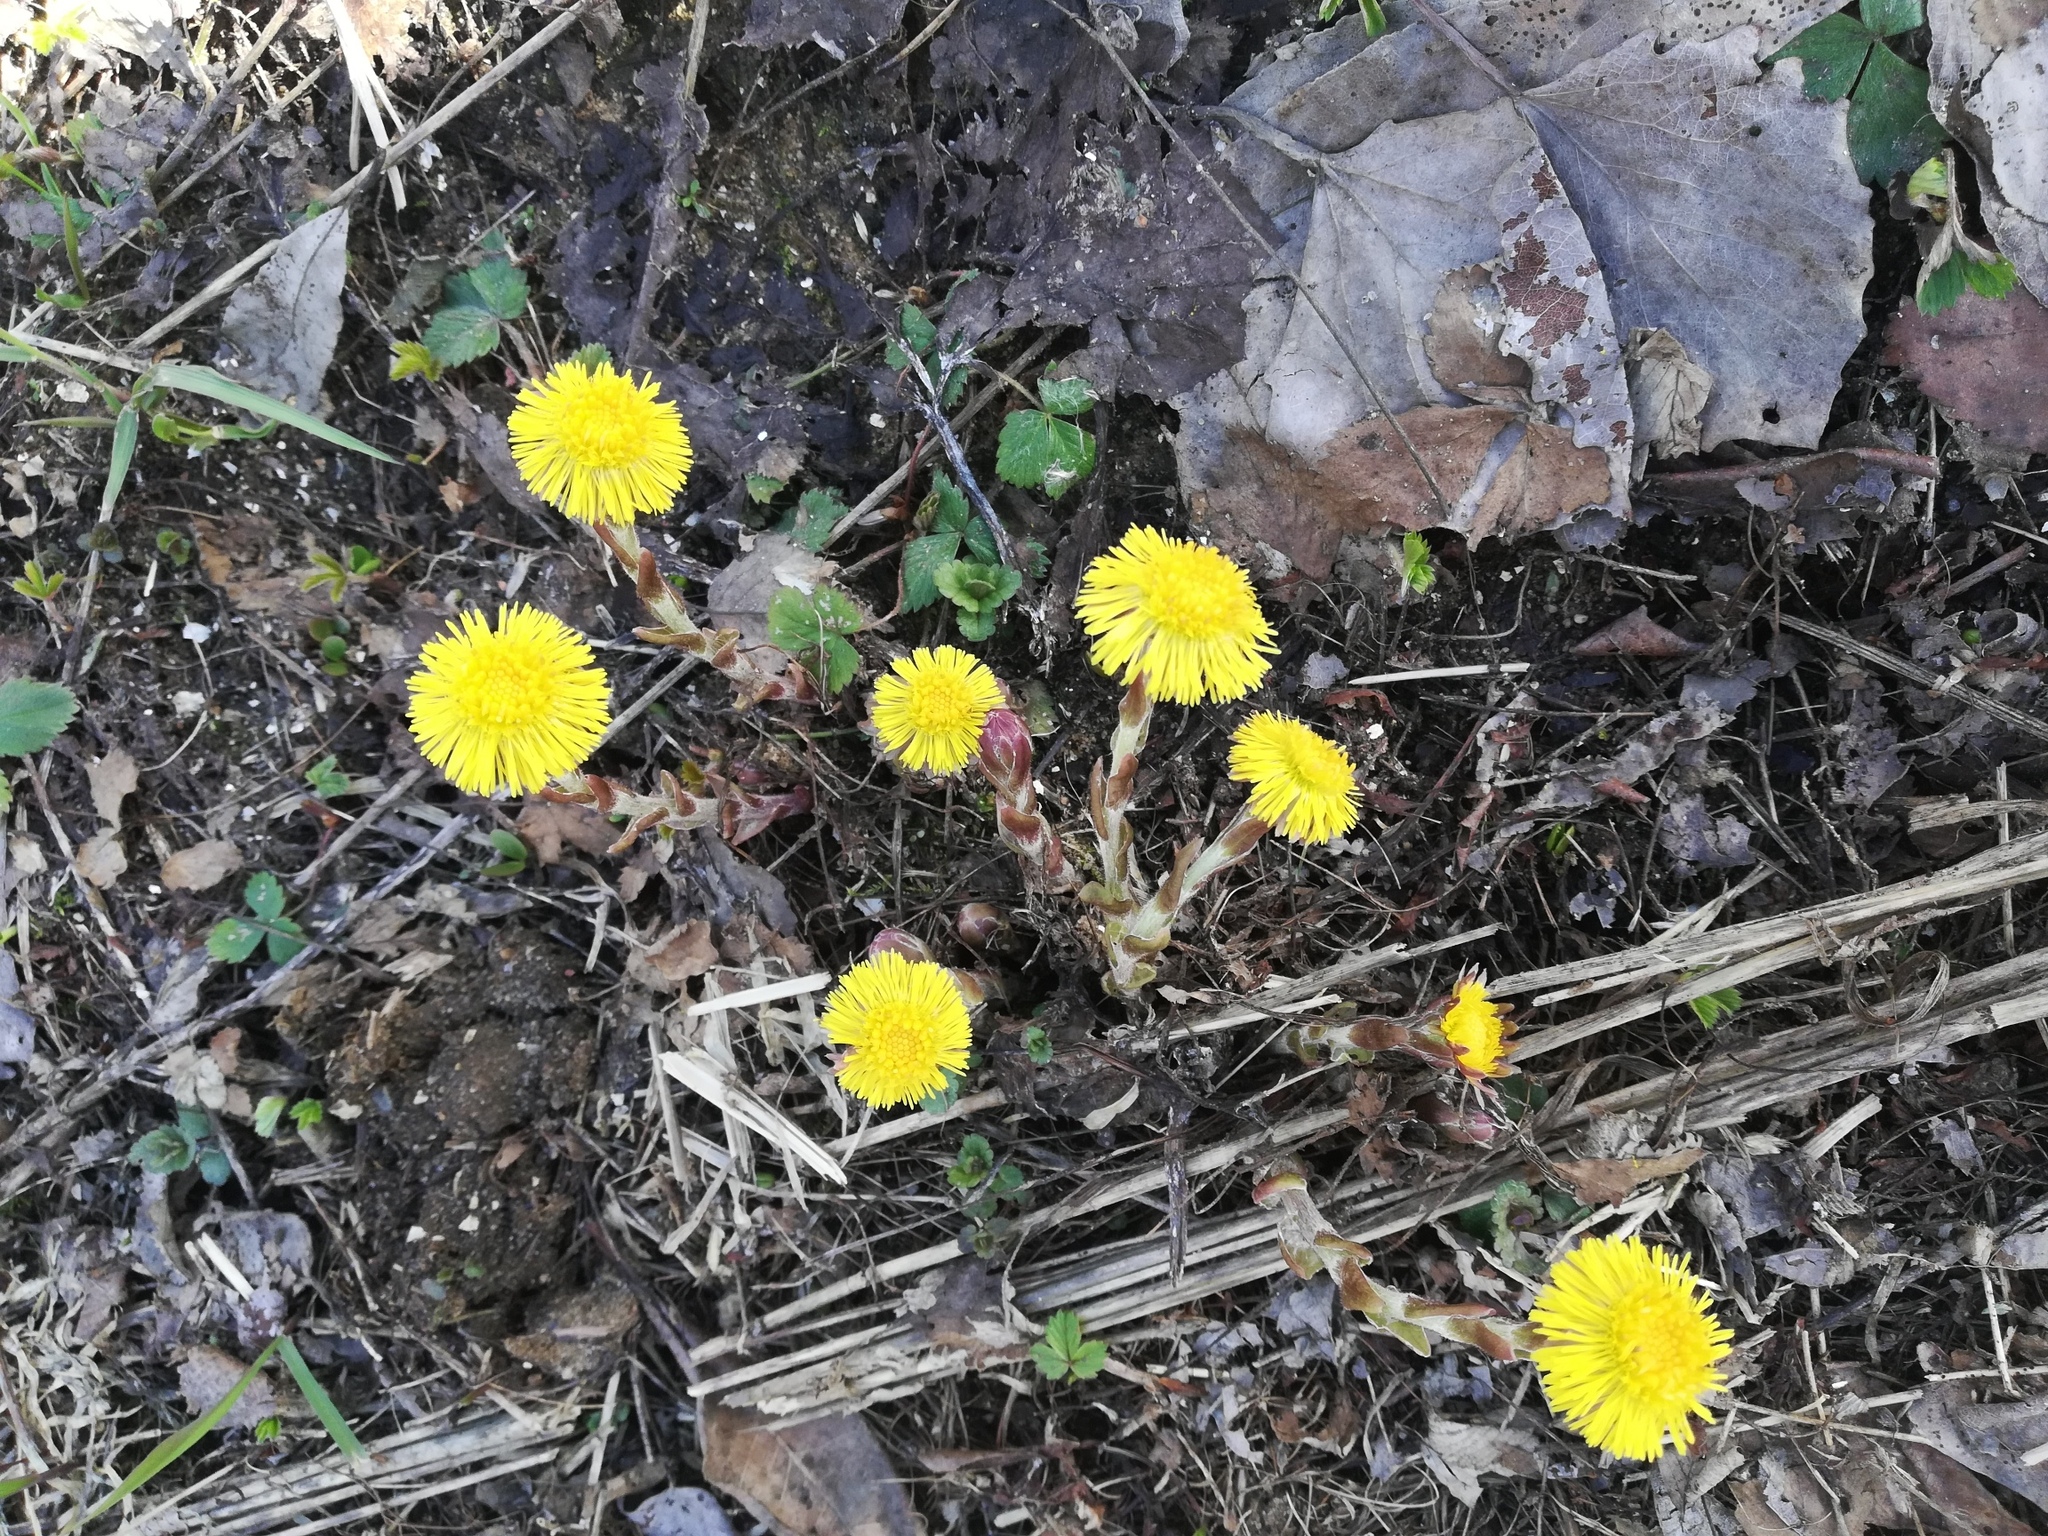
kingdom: Plantae
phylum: Tracheophyta
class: Magnoliopsida
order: Asterales
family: Asteraceae
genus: Tussilago
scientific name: Tussilago farfara
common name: Coltsfoot
